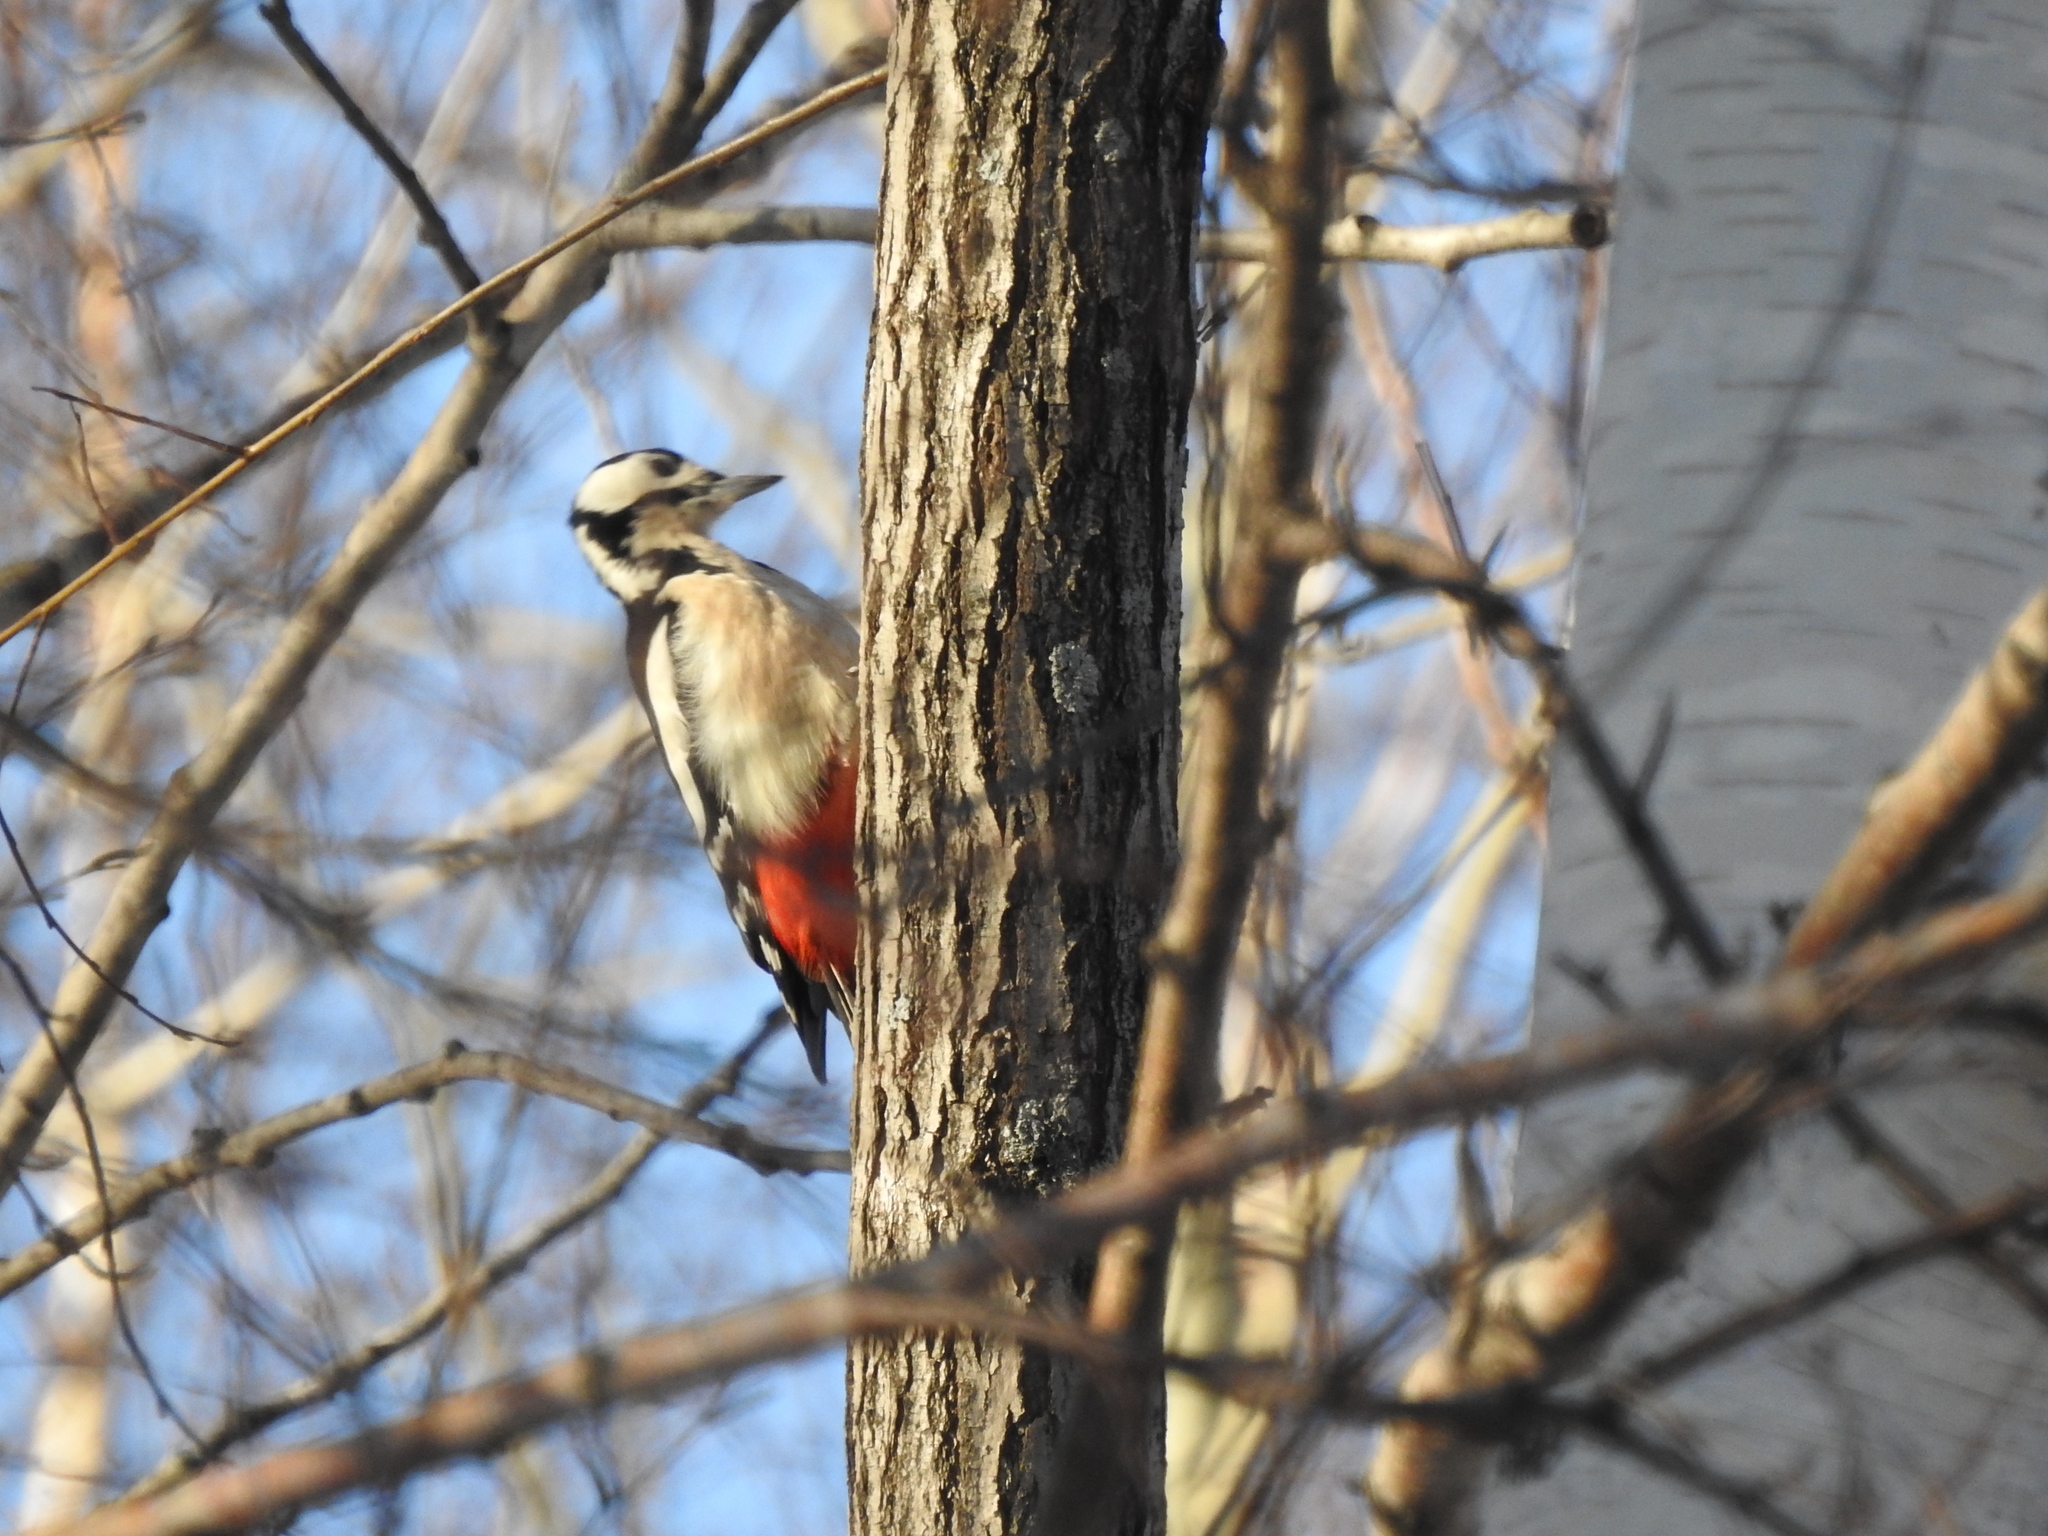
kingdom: Animalia
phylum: Chordata
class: Aves
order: Piciformes
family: Picidae
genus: Dendrocopos
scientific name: Dendrocopos major
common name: Great spotted woodpecker
